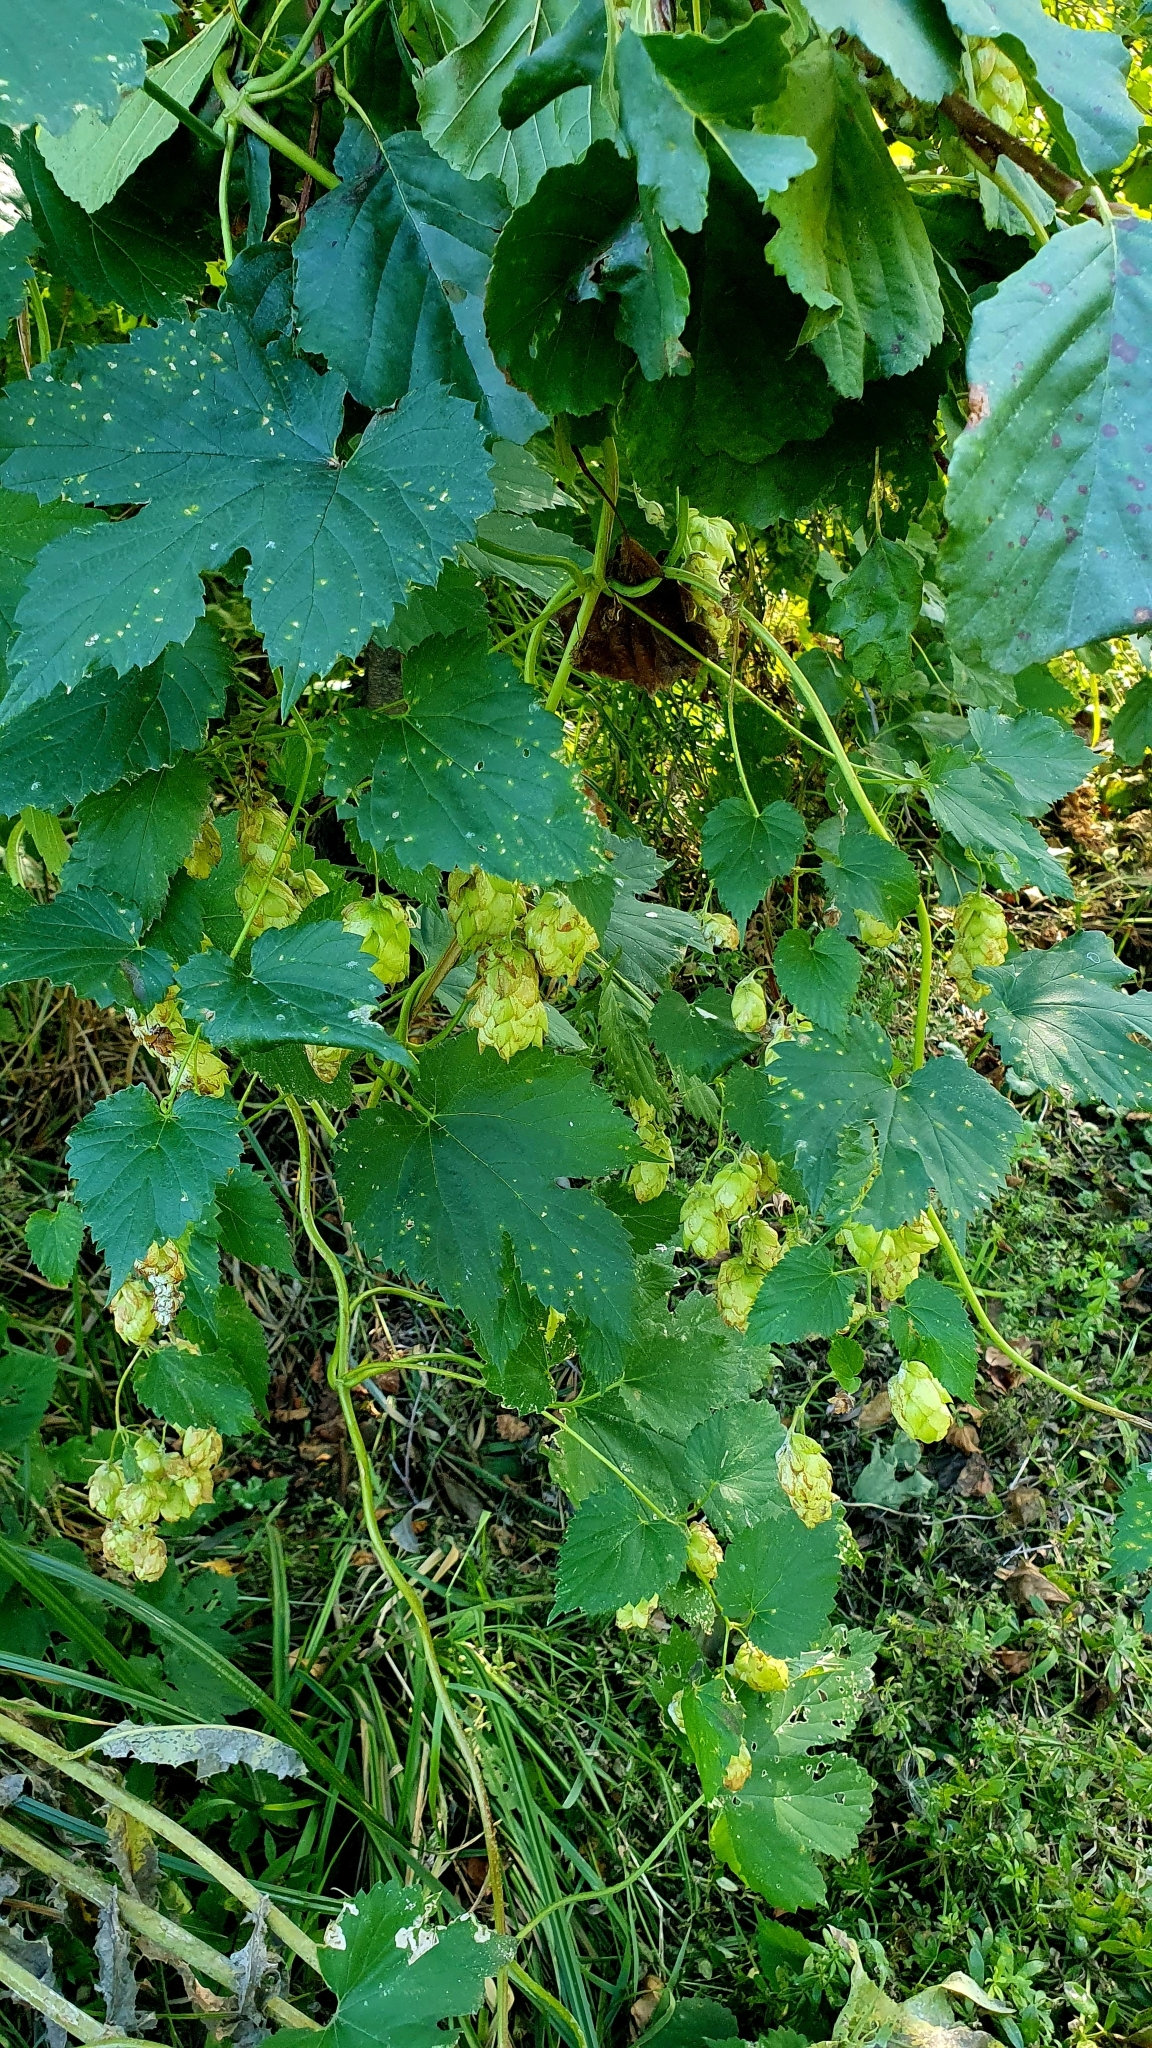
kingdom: Plantae
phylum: Tracheophyta
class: Magnoliopsida
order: Rosales
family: Cannabaceae
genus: Humulus
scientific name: Humulus lupulus
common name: Hop
